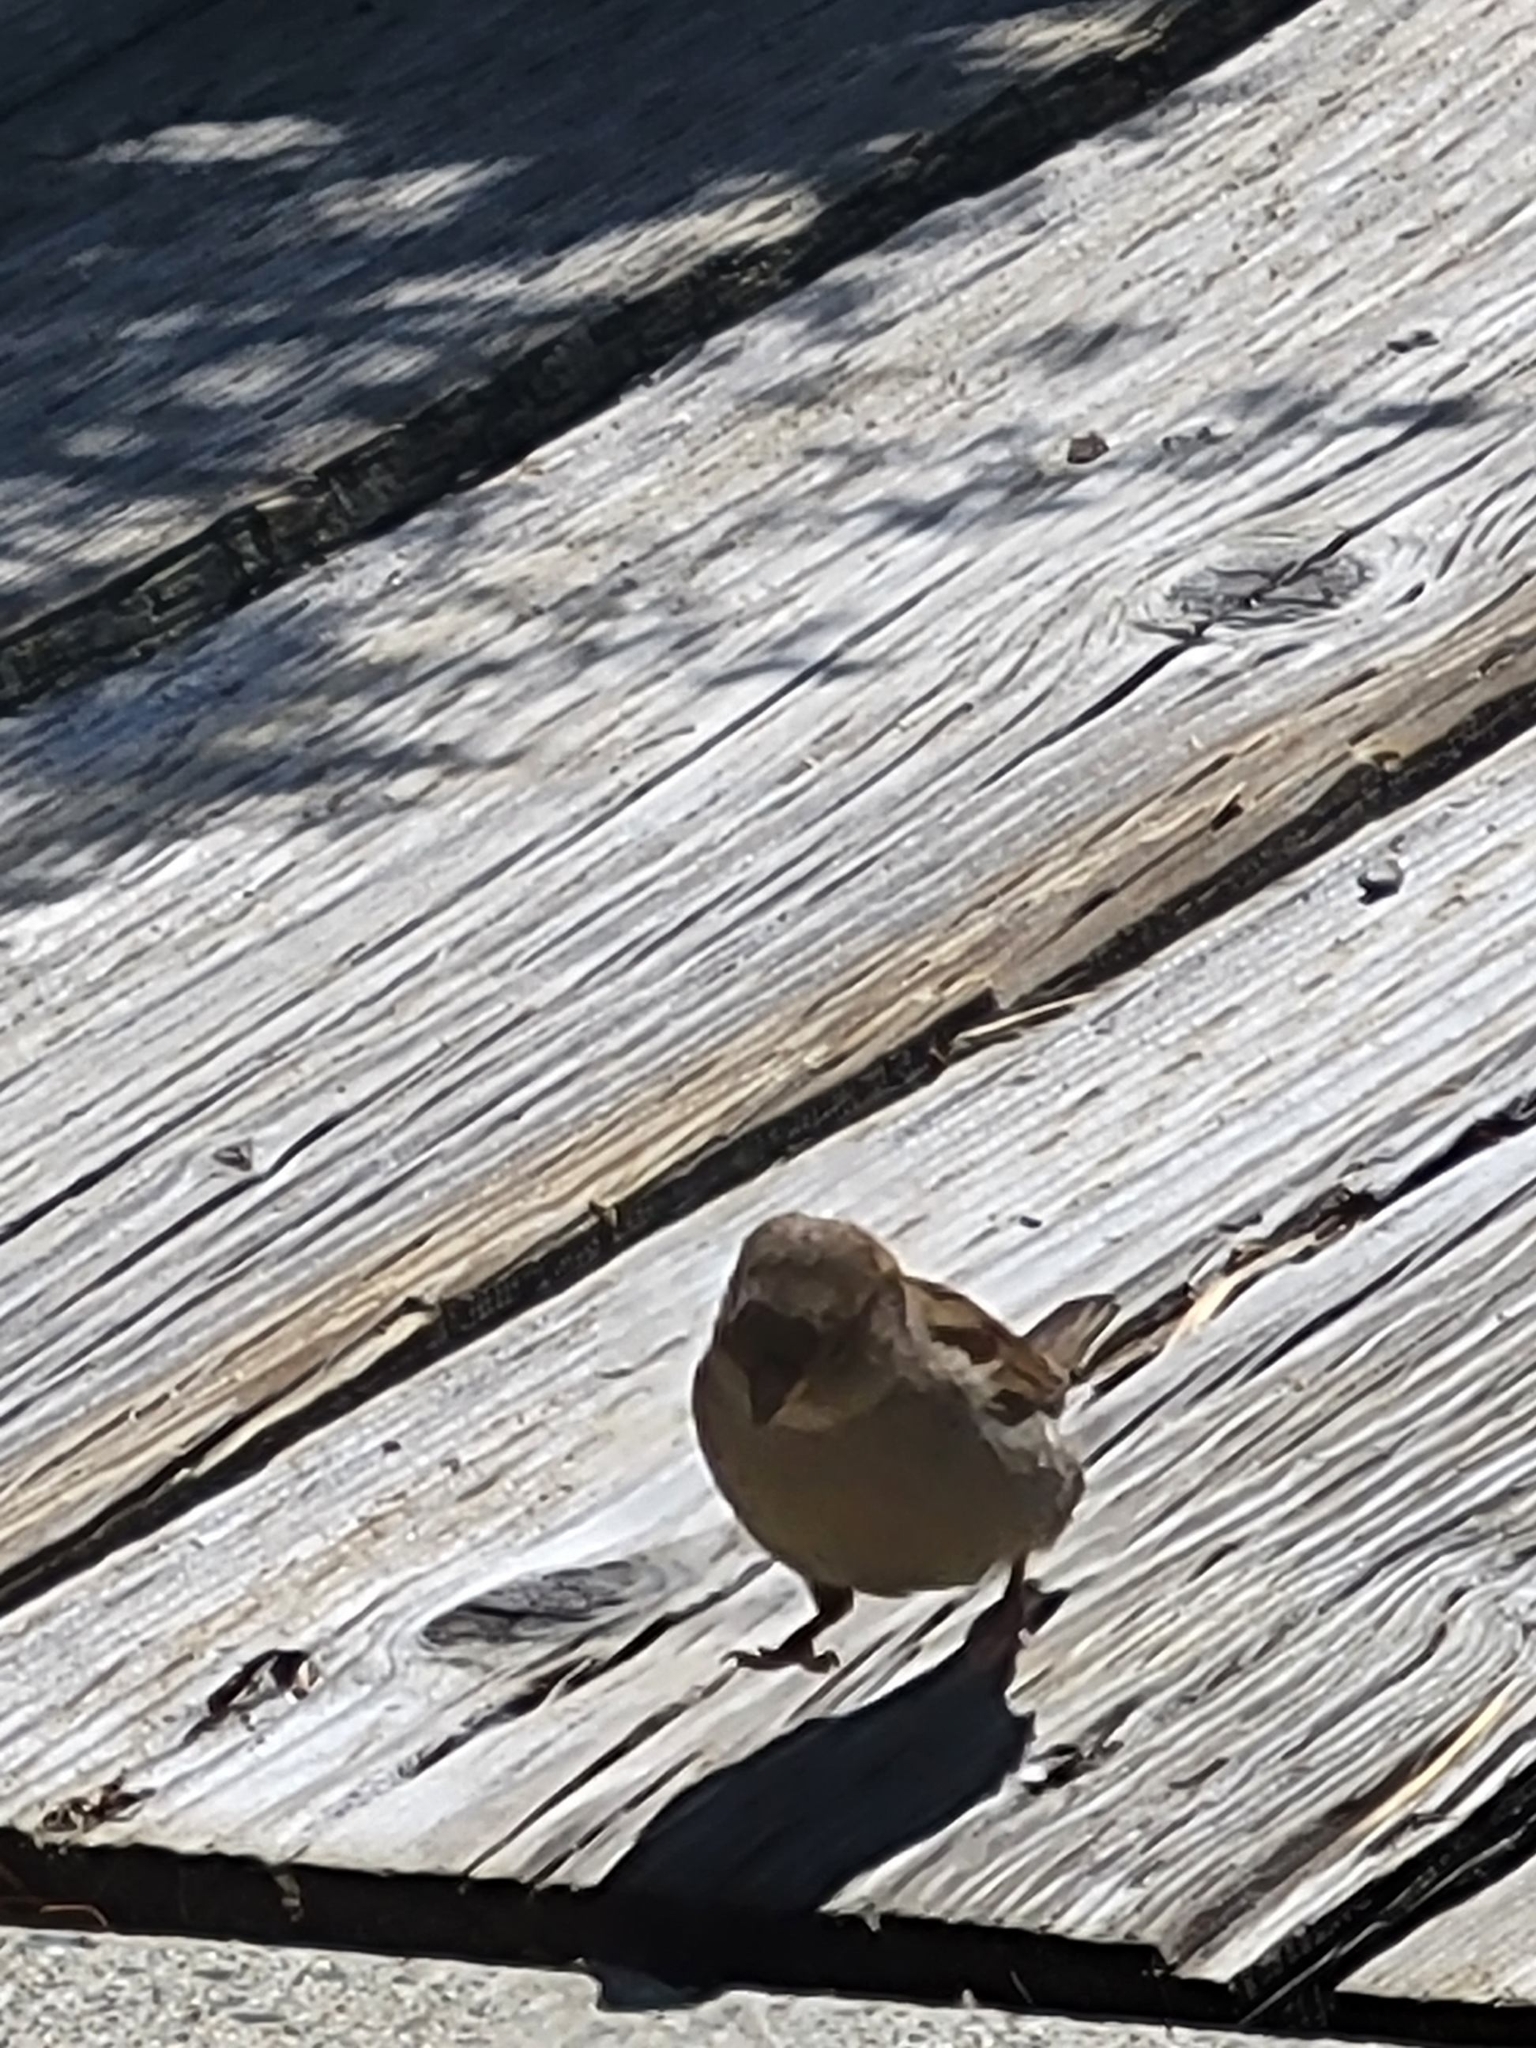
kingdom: Animalia
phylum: Chordata
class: Aves
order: Passeriformes
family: Passeridae
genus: Passer
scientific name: Passer domesticus
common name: House sparrow
